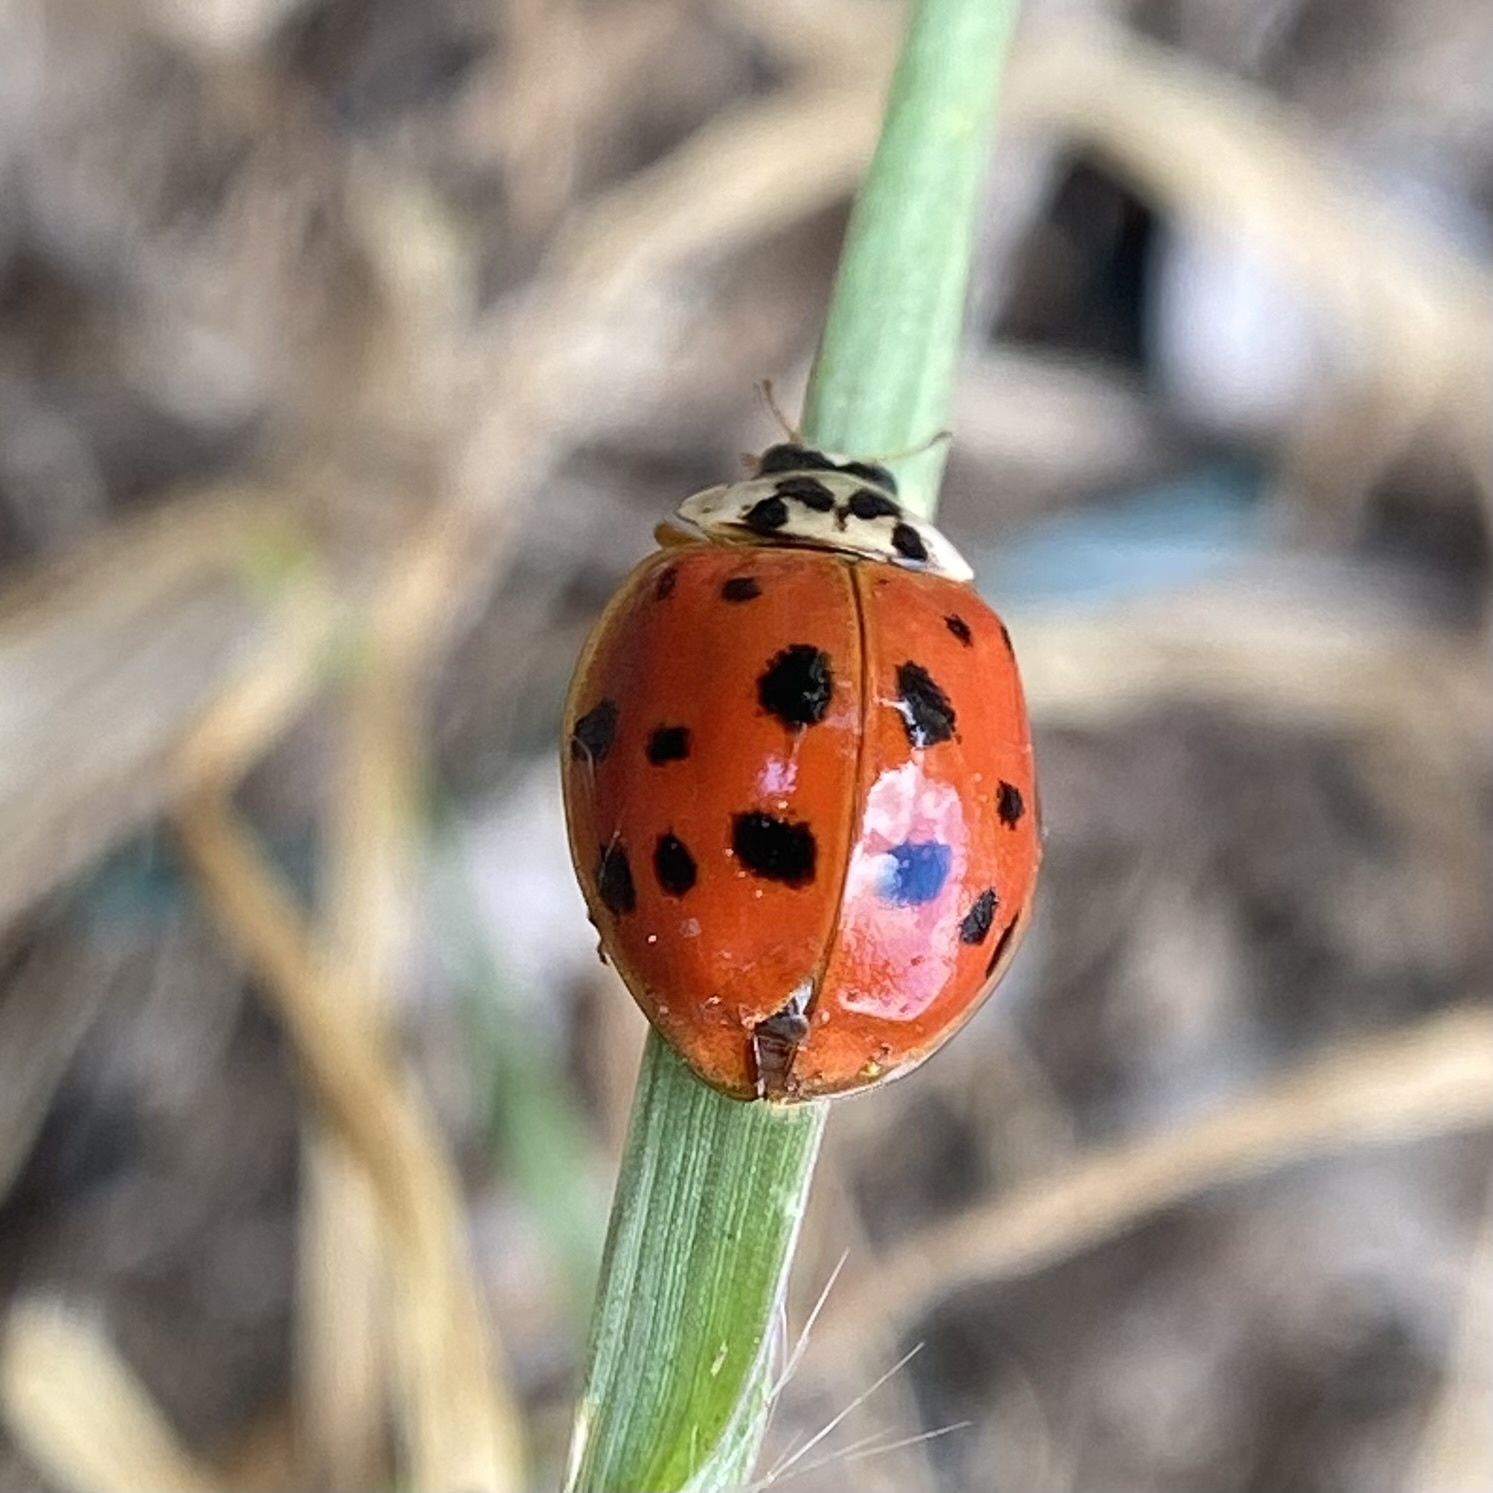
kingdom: Animalia
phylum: Arthropoda
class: Insecta
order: Coleoptera
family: Coccinellidae
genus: Harmonia
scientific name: Harmonia axyridis
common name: Harlequin ladybird
